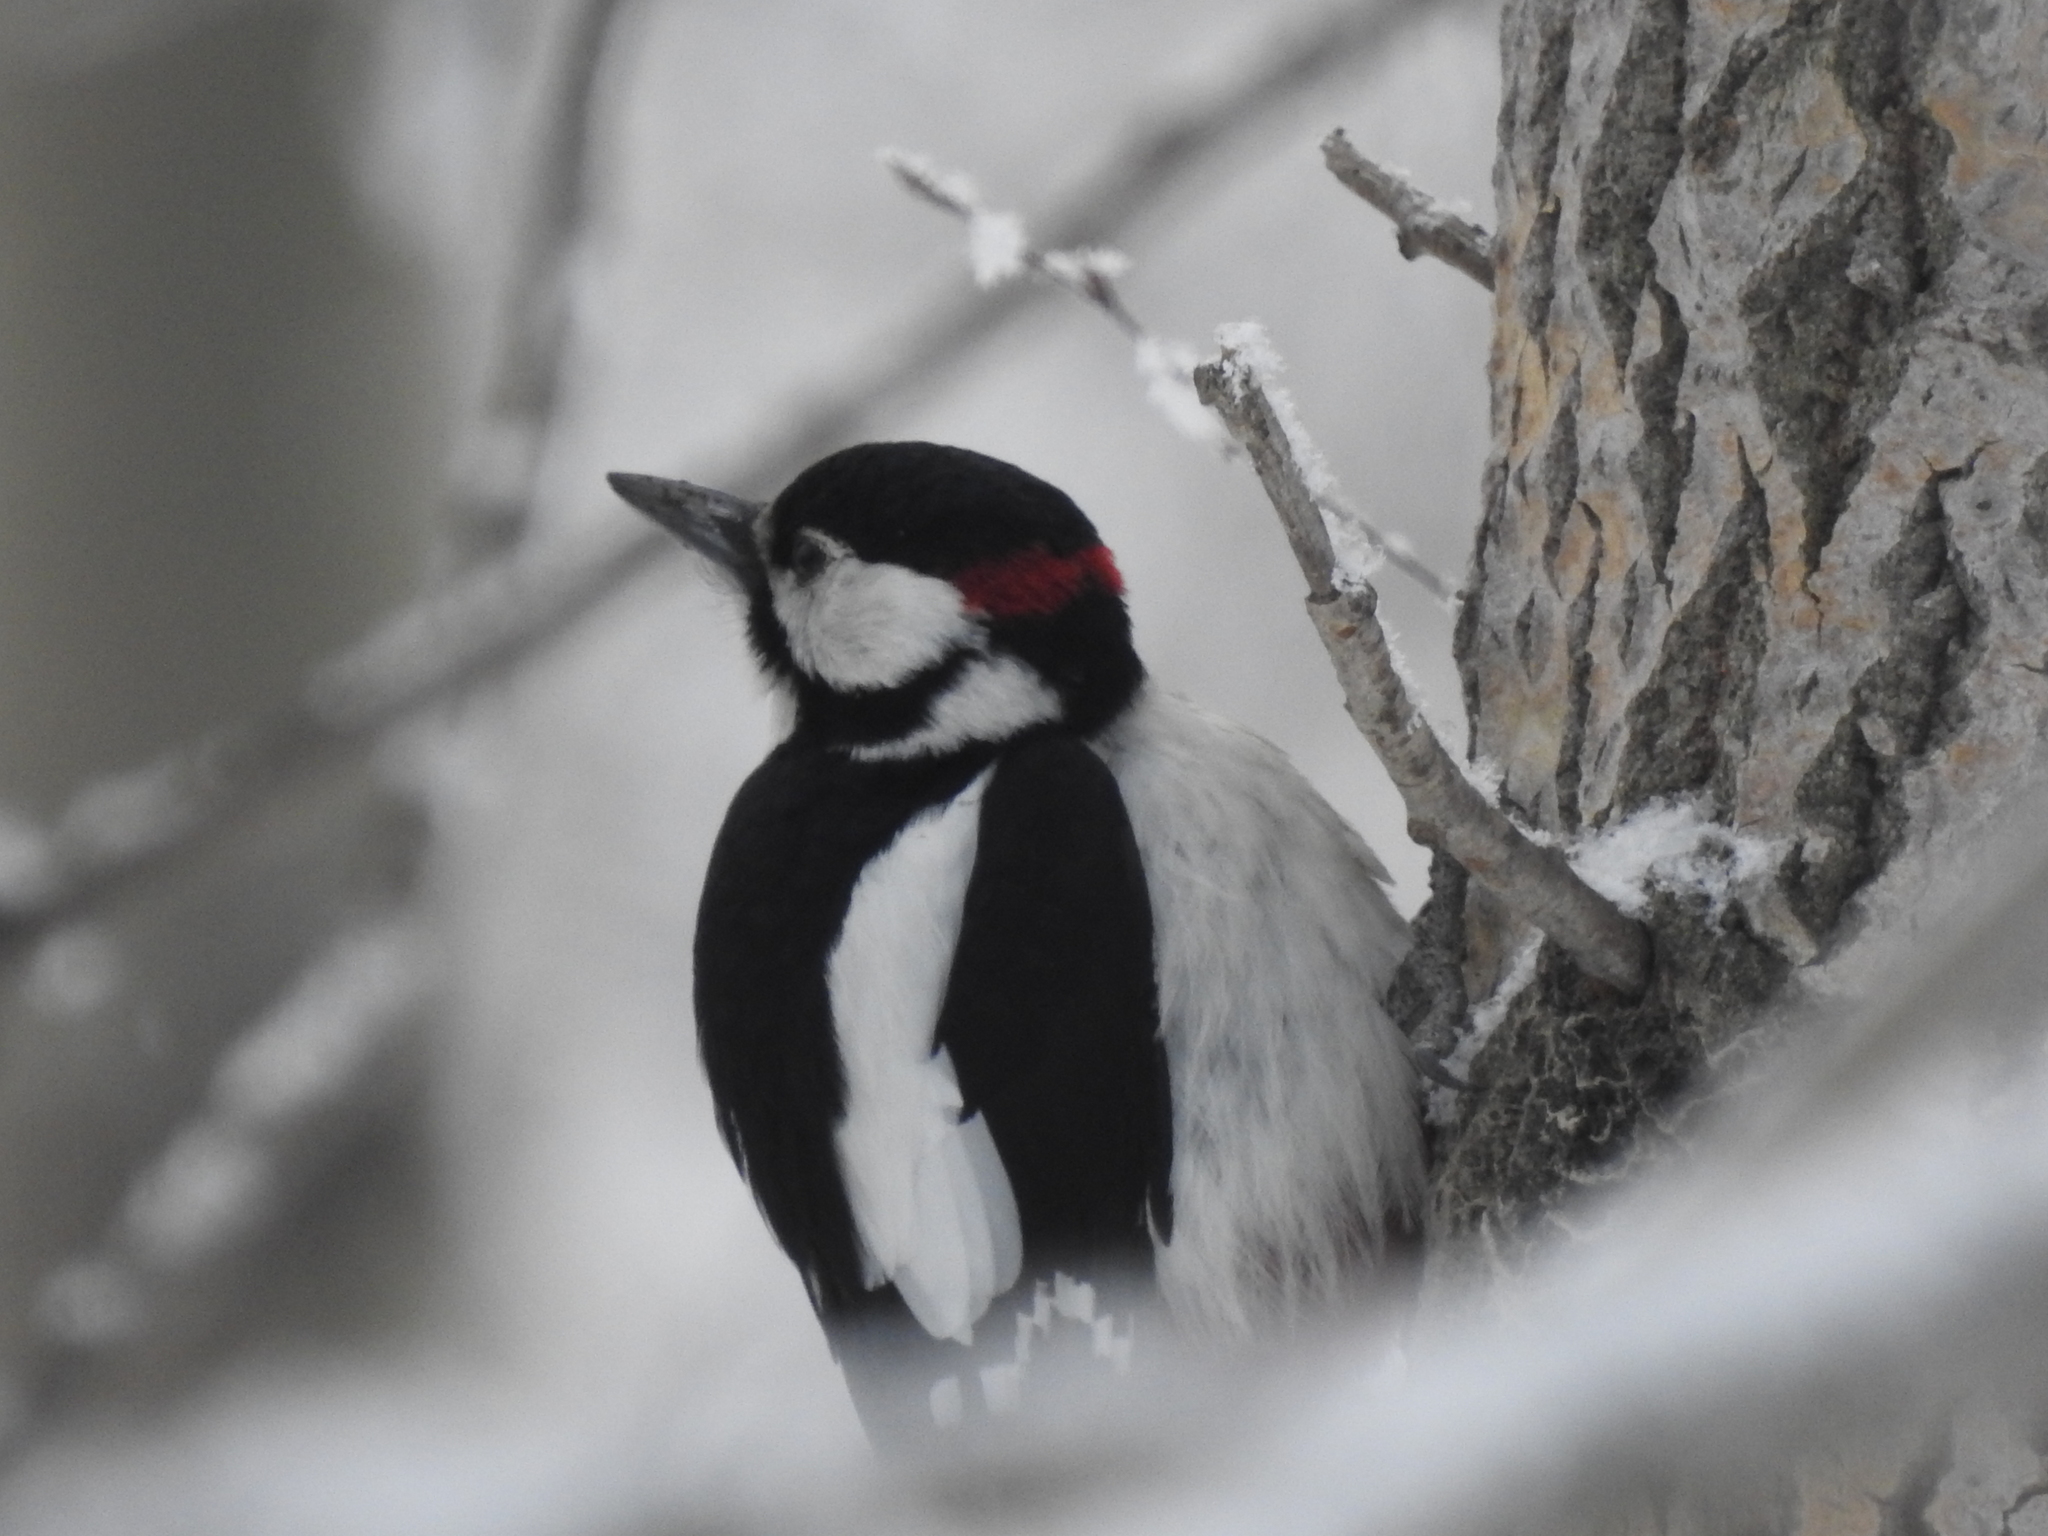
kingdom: Animalia
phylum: Chordata
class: Aves
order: Piciformes
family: Picidae
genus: Dendrocopos
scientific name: Dendrocopos major
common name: Great spotted woodpecker
